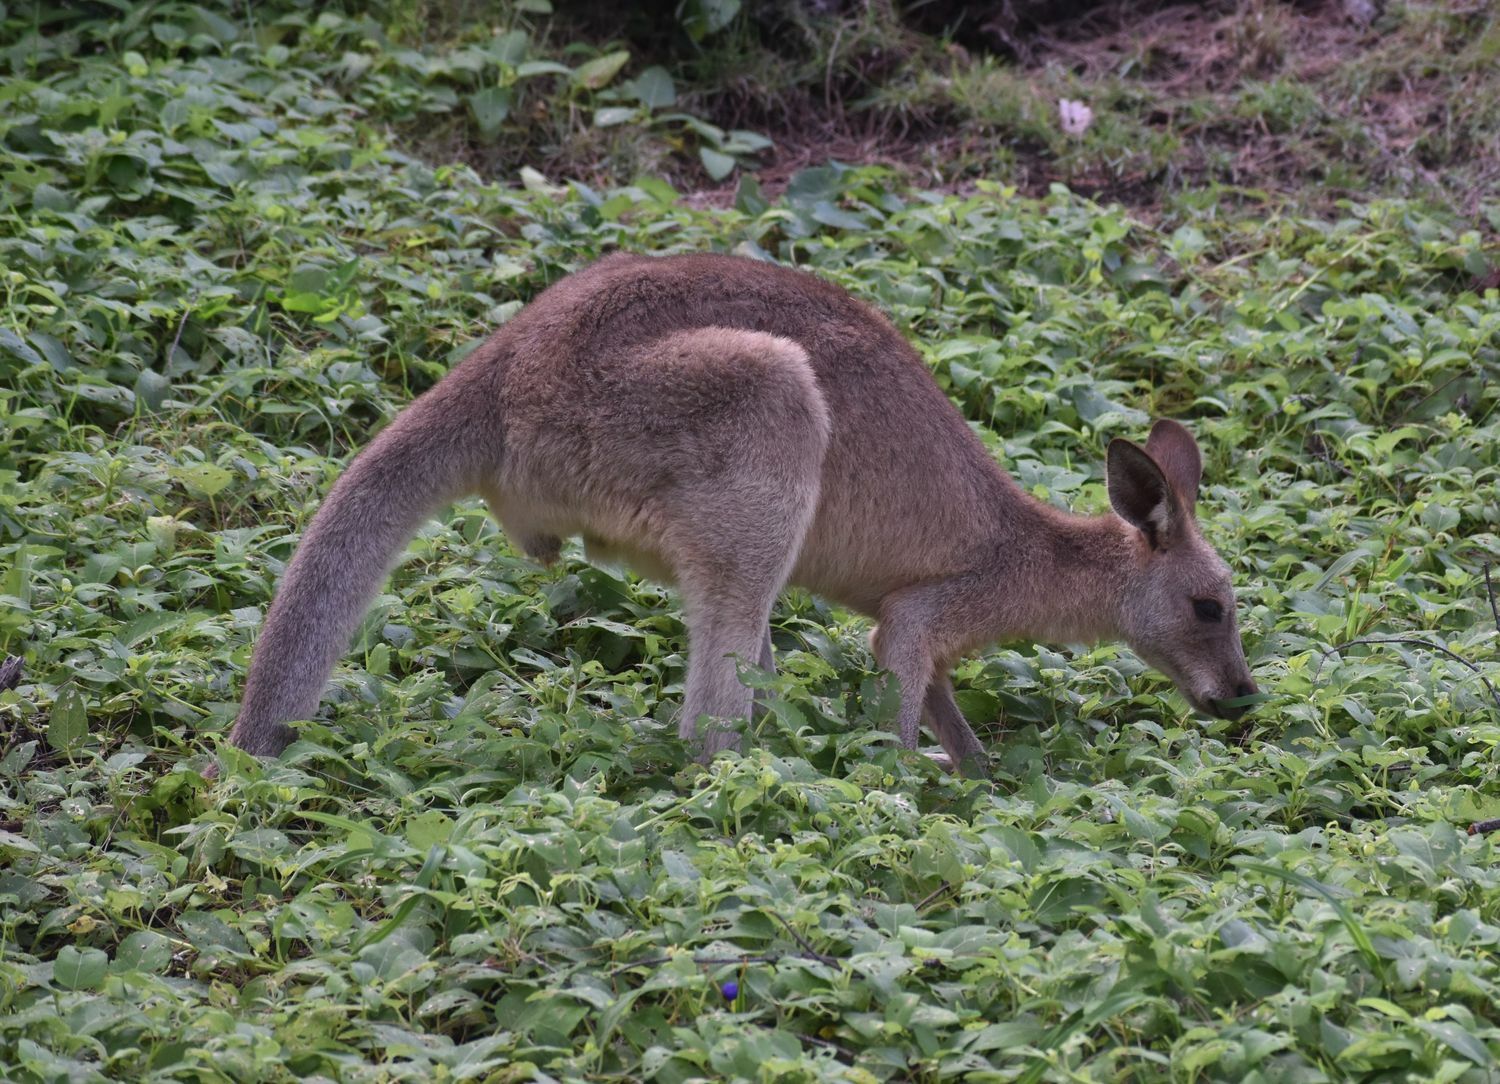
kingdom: Animalia
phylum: Chordata
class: Mammalia
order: Diprotodontia
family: Macropodidae
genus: Macropus
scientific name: Macropus giganteus
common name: Eastern grey kangaroo
